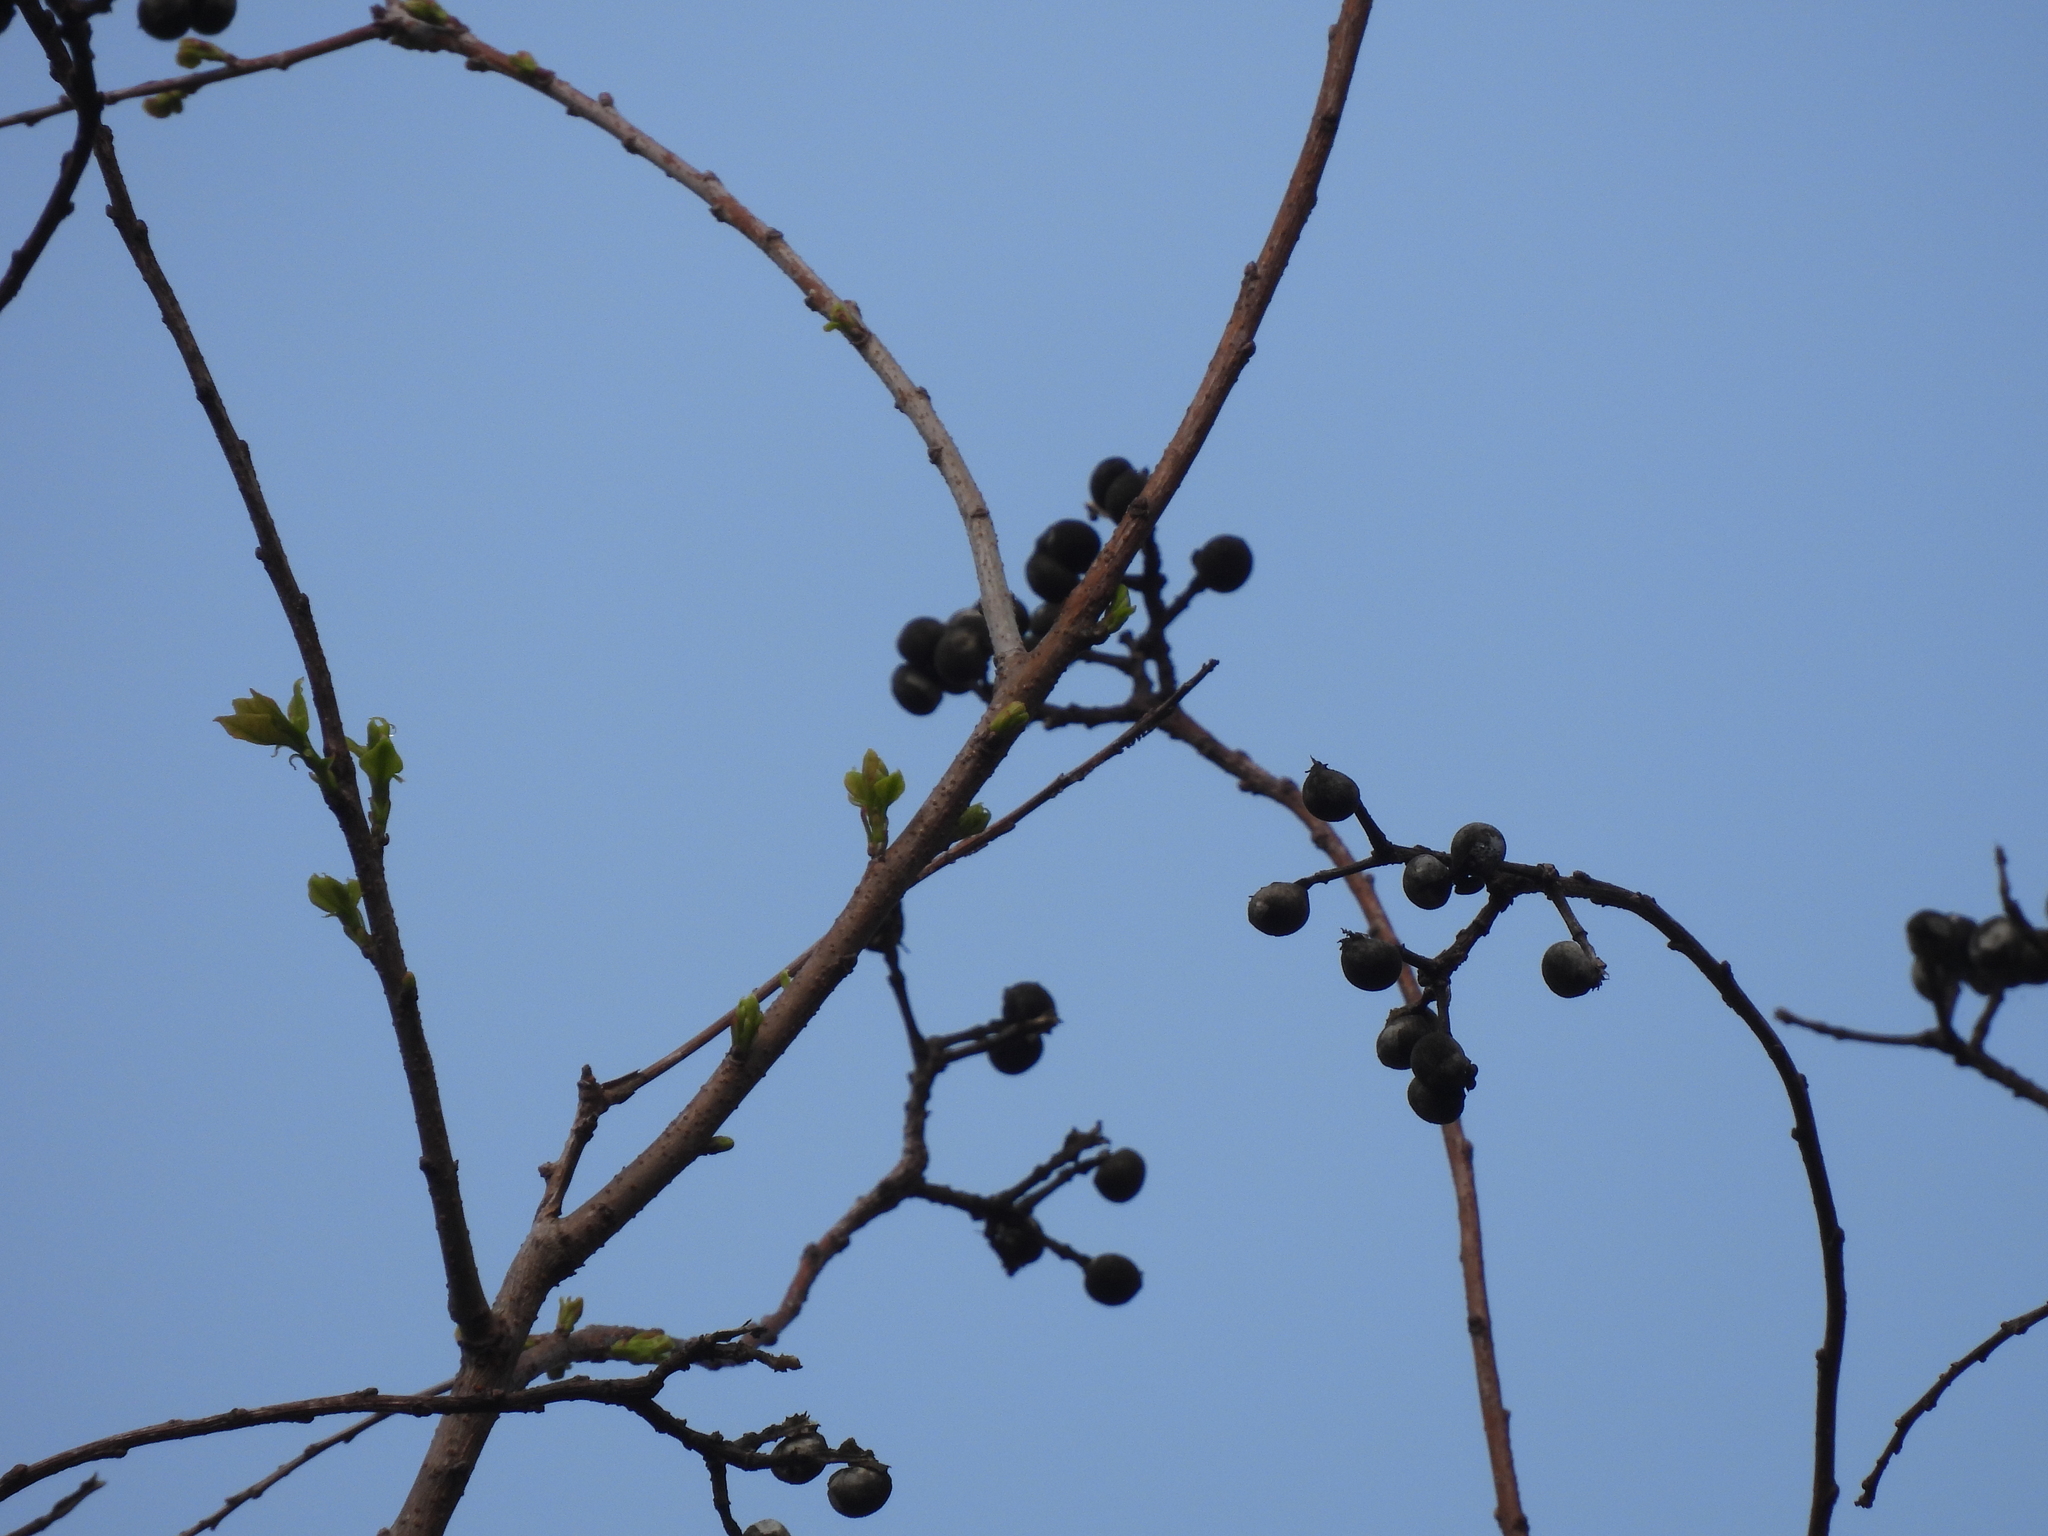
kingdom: Plantae
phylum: Tracheophyta
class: Magnoliopsida
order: Malpighiales
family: Euphorbiaceae
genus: Triadica
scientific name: Triadica sebifera
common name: Chinese tallow
